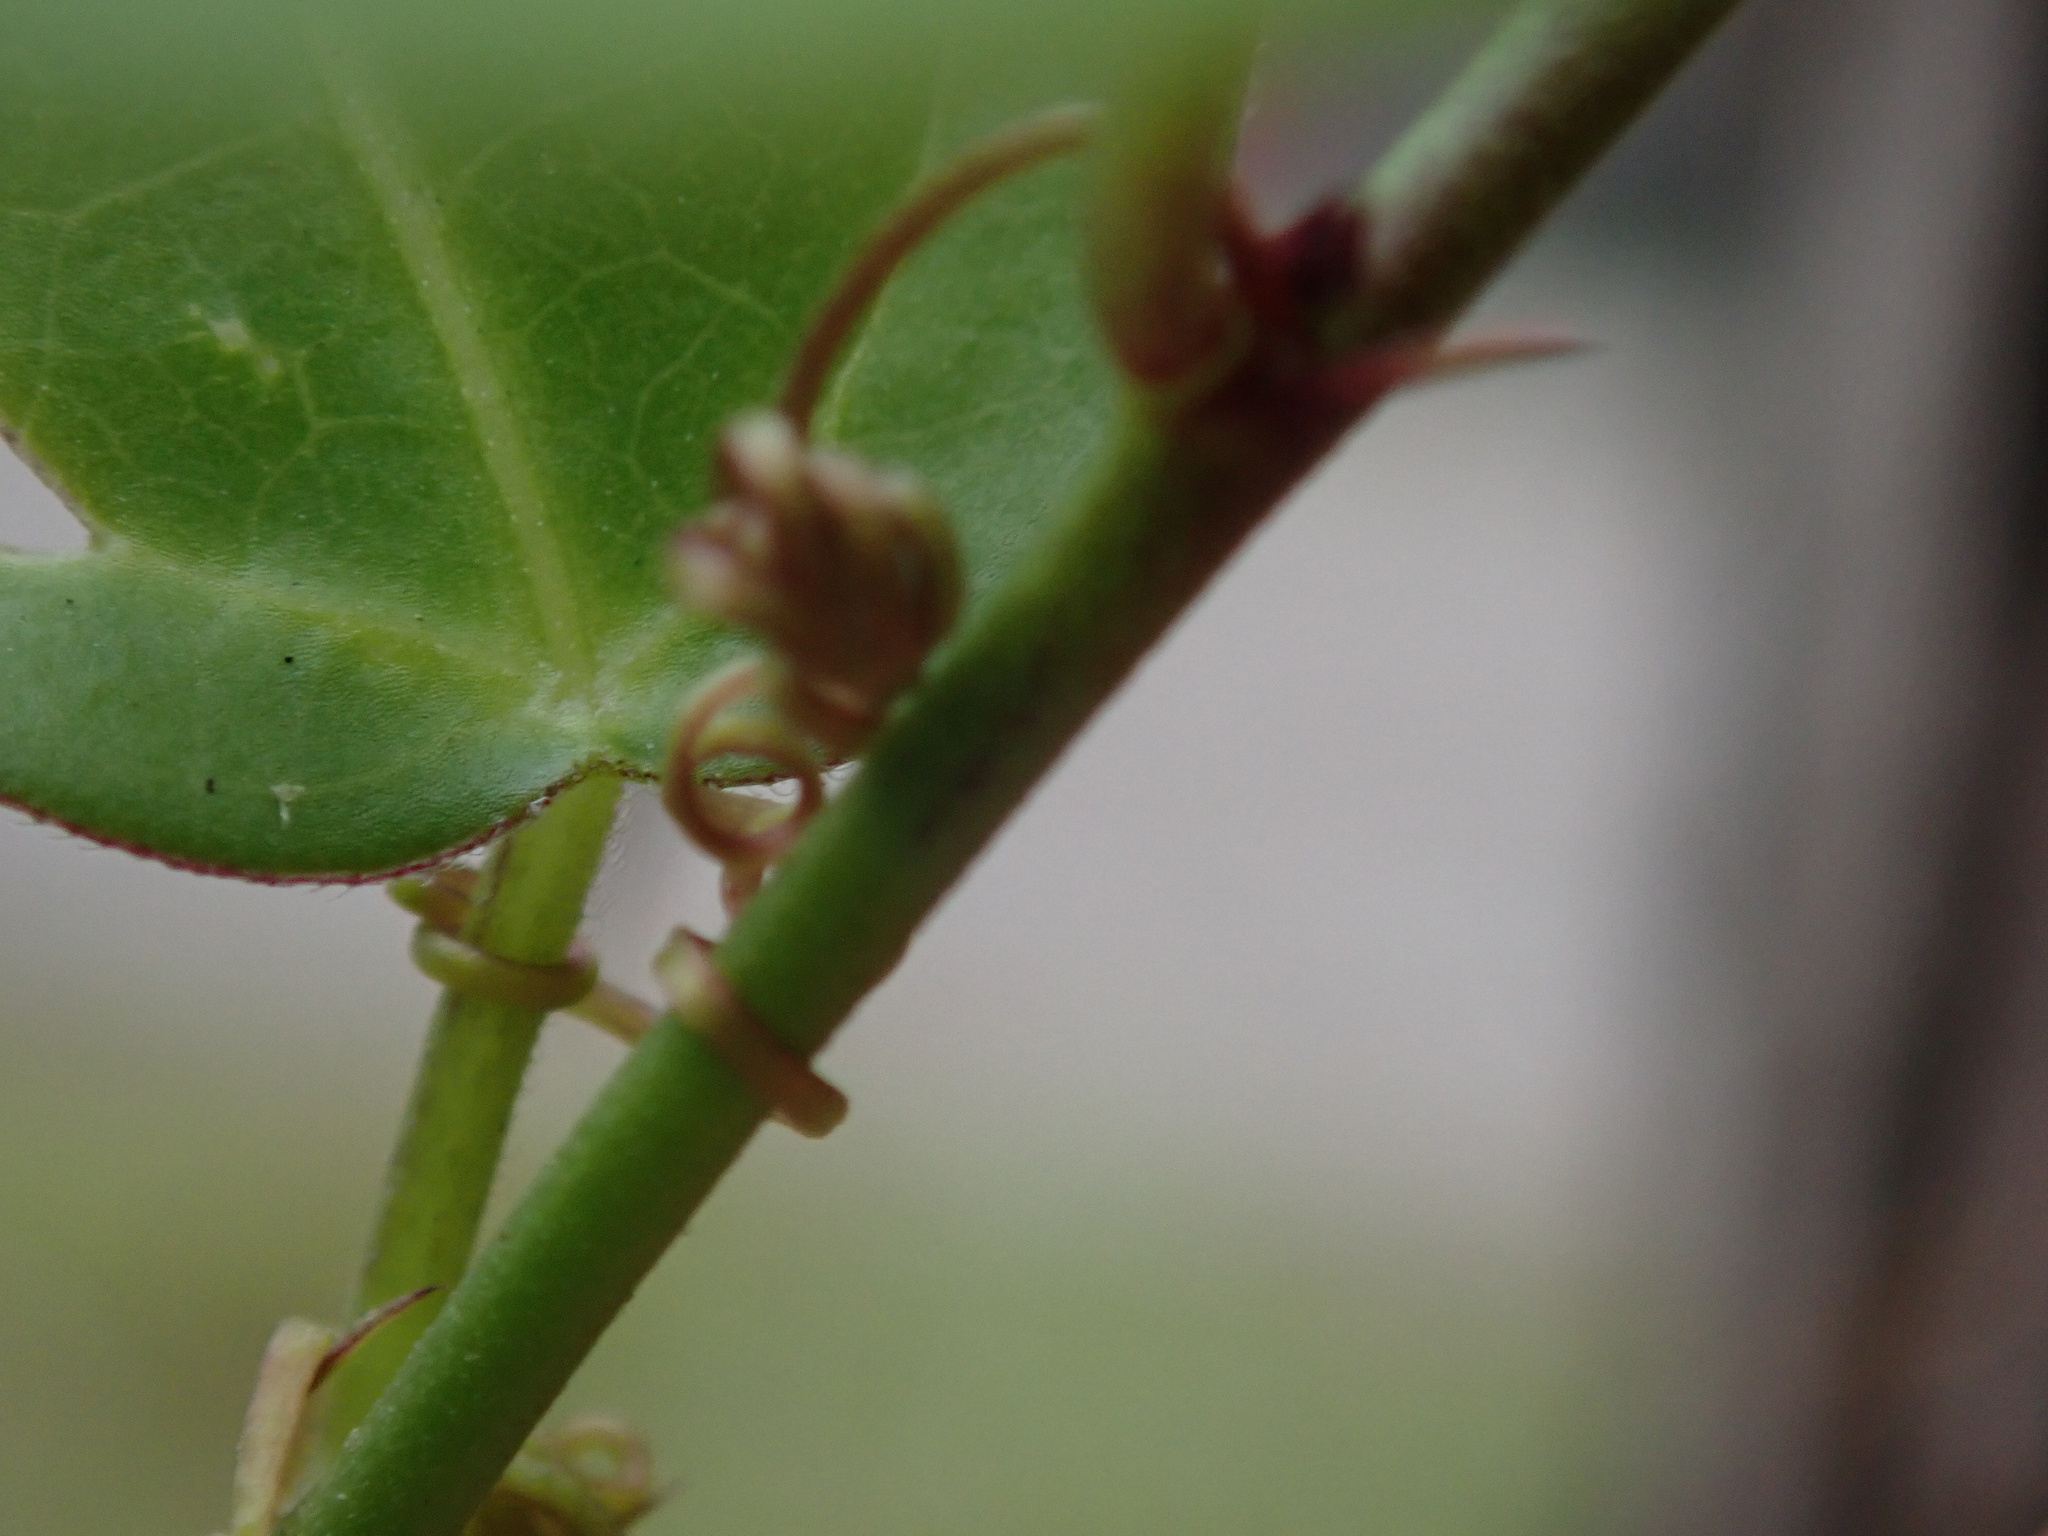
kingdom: Plantae
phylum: Tracheophyta
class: Magnoliopsida
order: Malpighiales
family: Passifloraceae
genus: Passiflora
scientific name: Passiflora pallida
